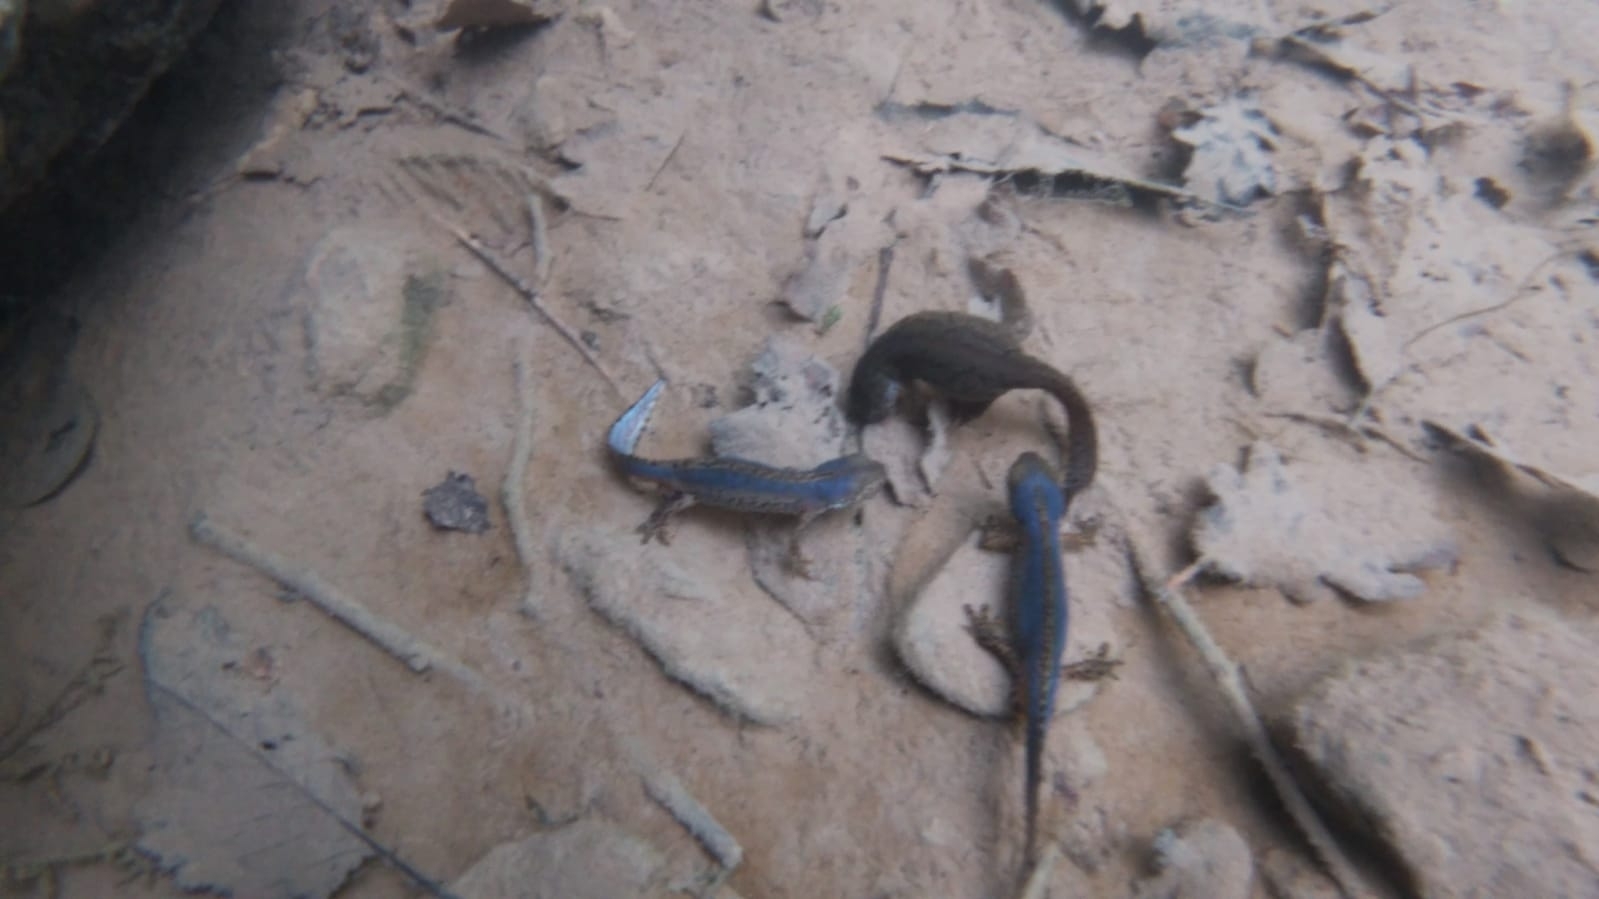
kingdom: Animalia
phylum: Chordata
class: Amphibia
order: Caudata
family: Salamandridae
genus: Ichthyosaura
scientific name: Ichthyosaura alpestris
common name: Alpine newt
